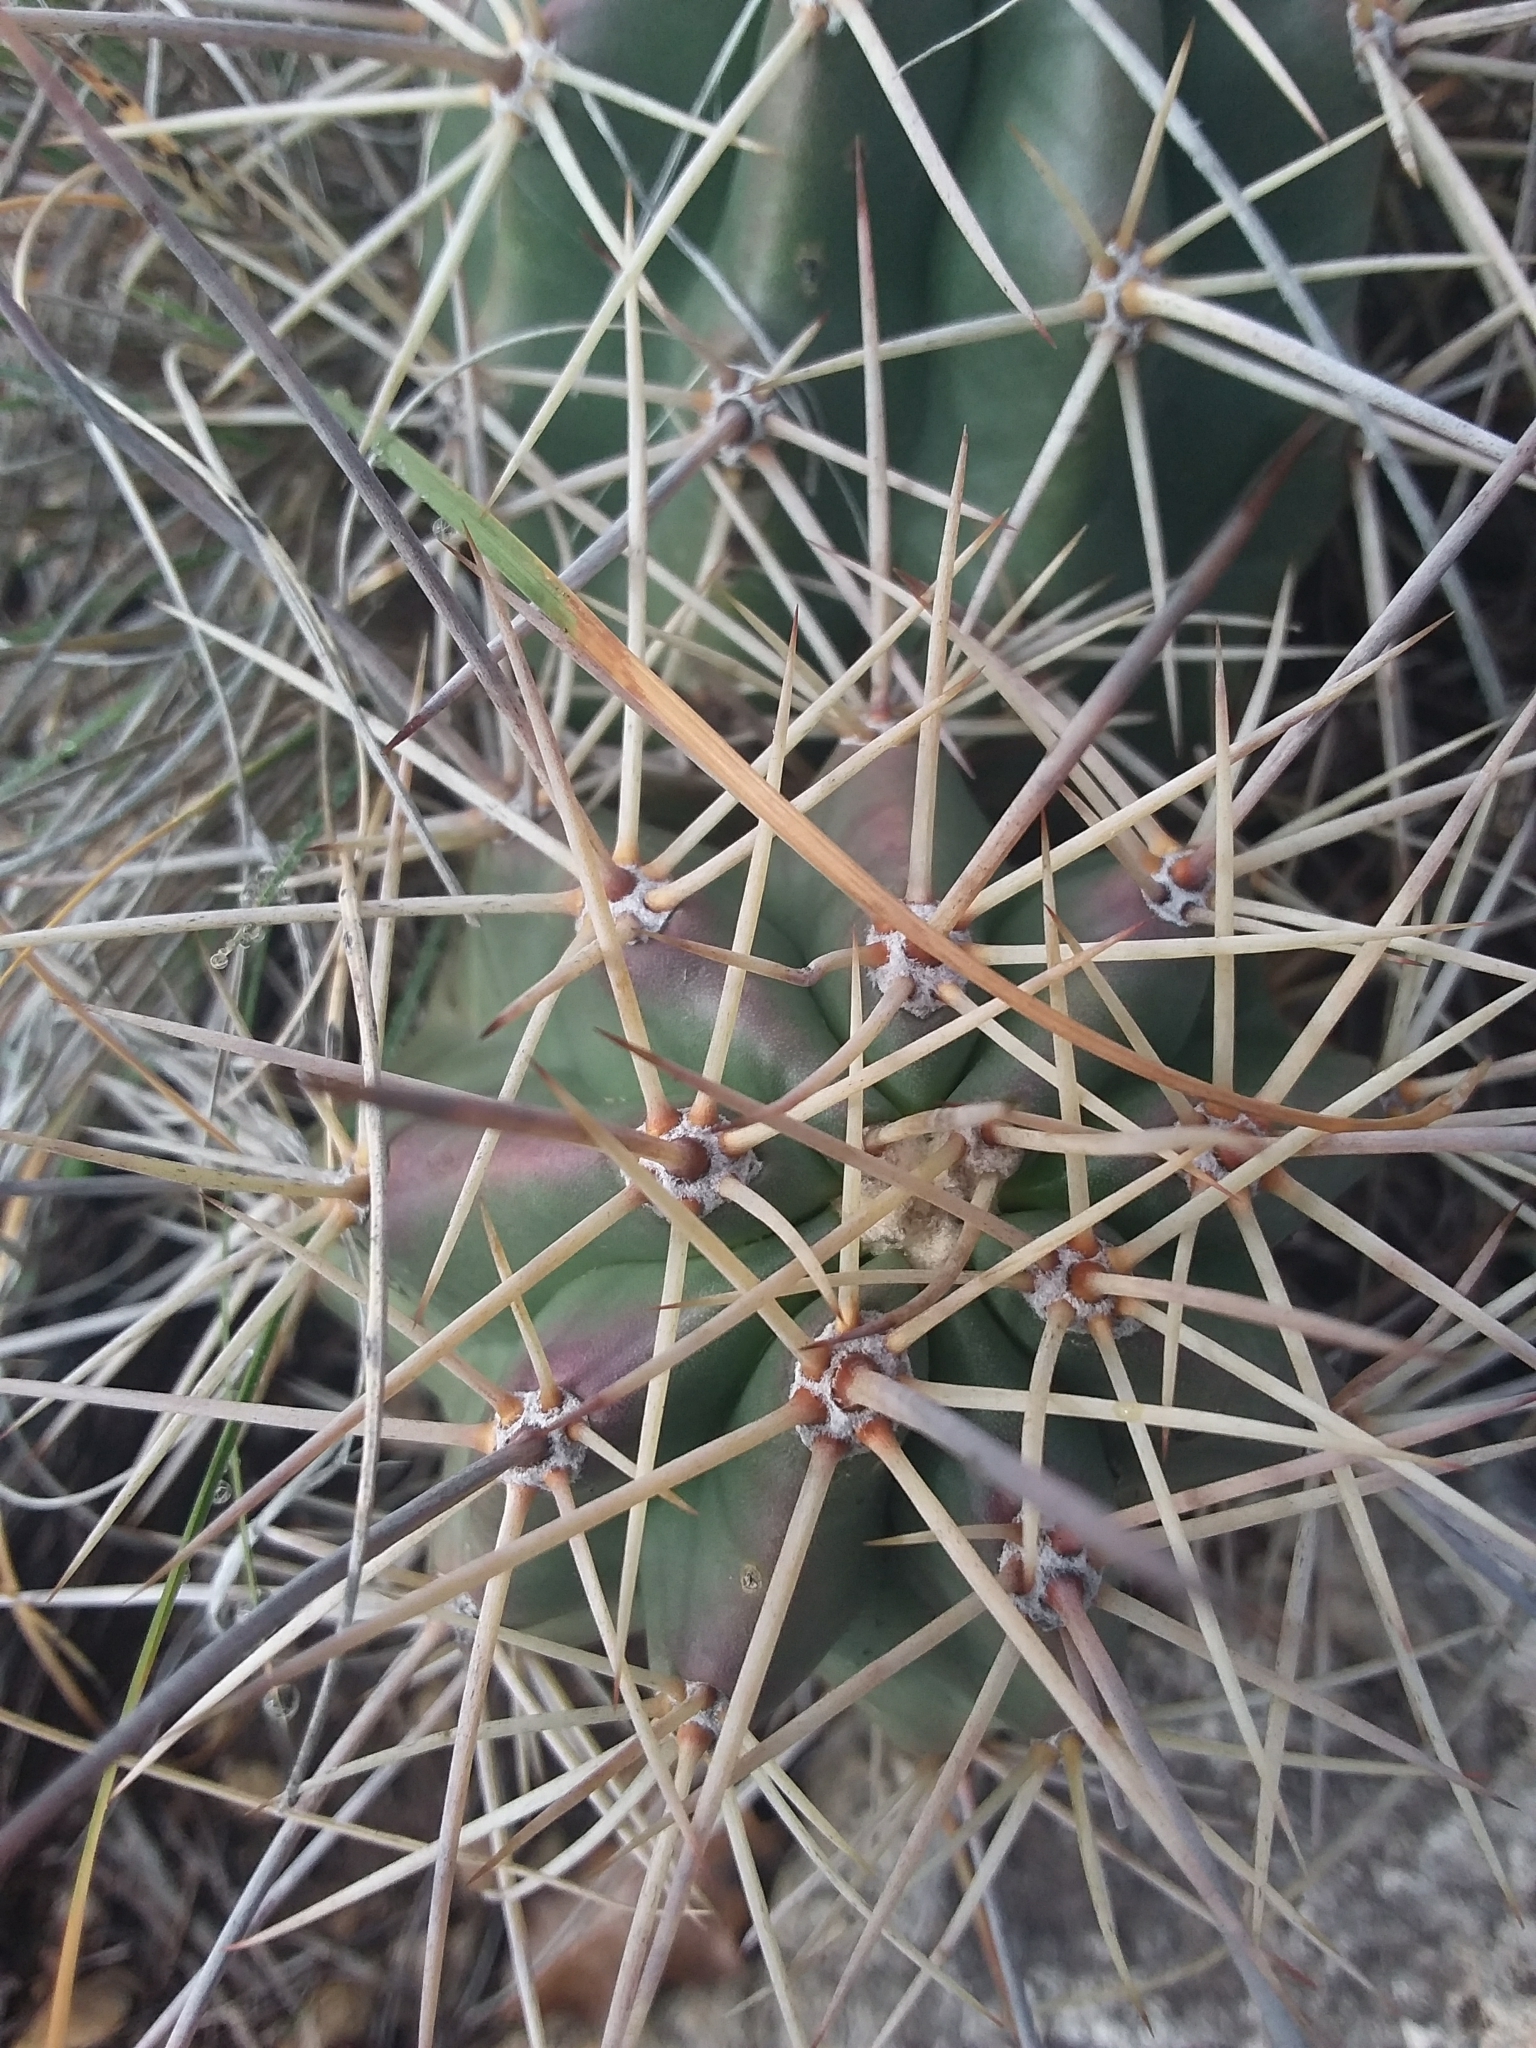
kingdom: Plantae
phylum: Tracheophyta
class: Magnoliopsida
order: Caryophyllales
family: Cactaceae
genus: Echinocereus
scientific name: Echinocereus coccineus
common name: Scarlet hedgehog cactus
